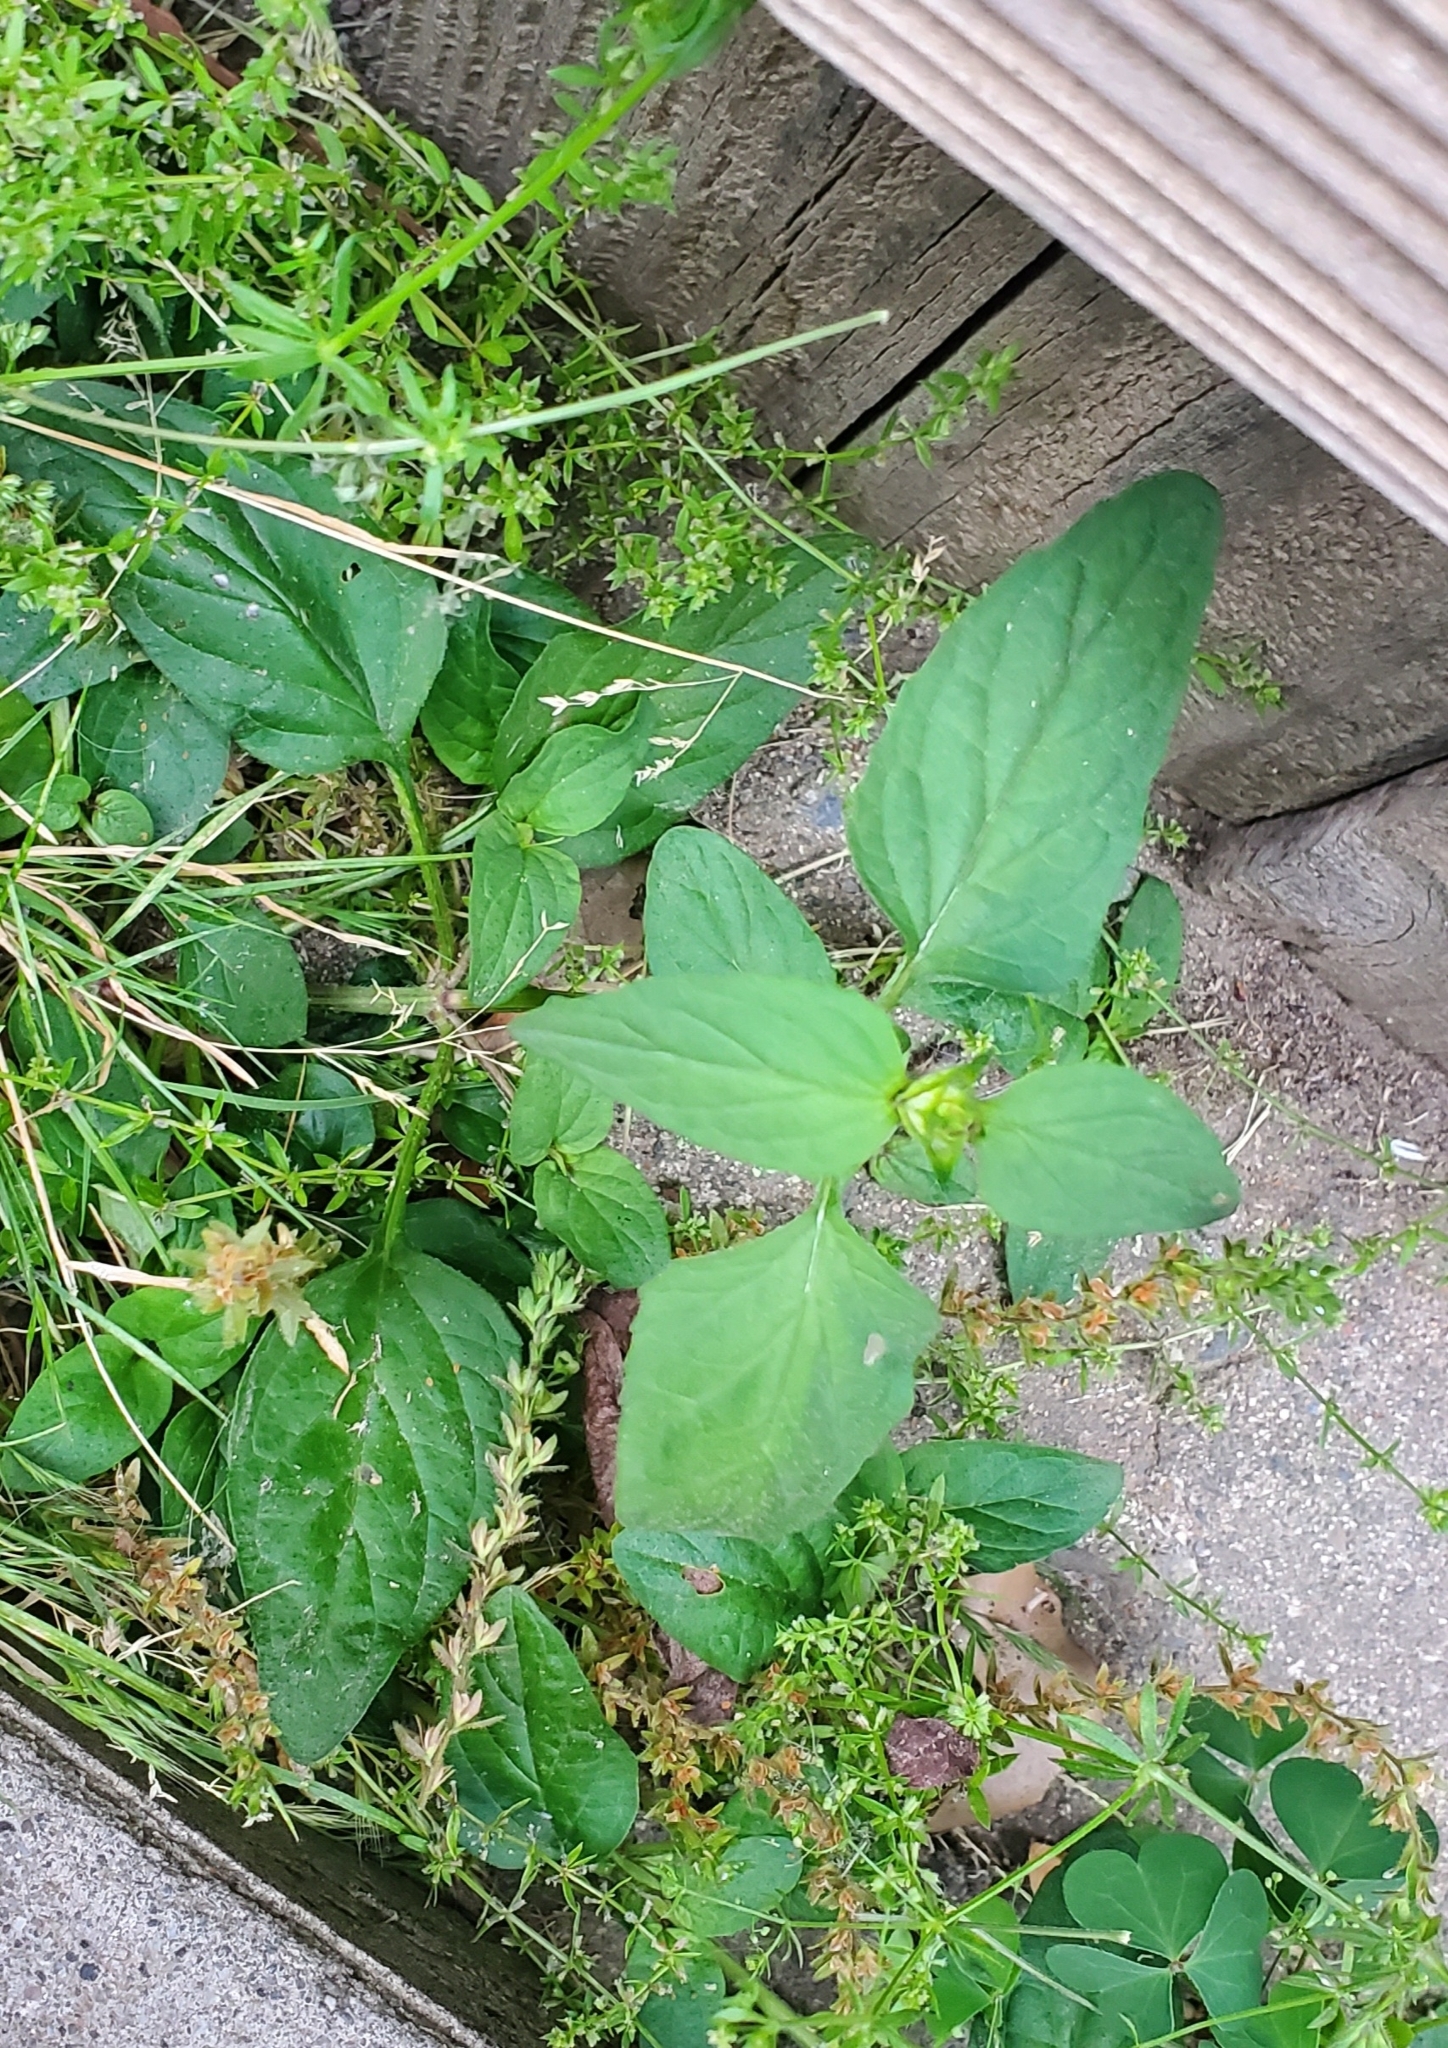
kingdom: Plantae
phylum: Tracheophyta
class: Magnoliopsida
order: Lamiales
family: Lamiaceae
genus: Prunella
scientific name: Prunella vulgaris
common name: Heal-all
